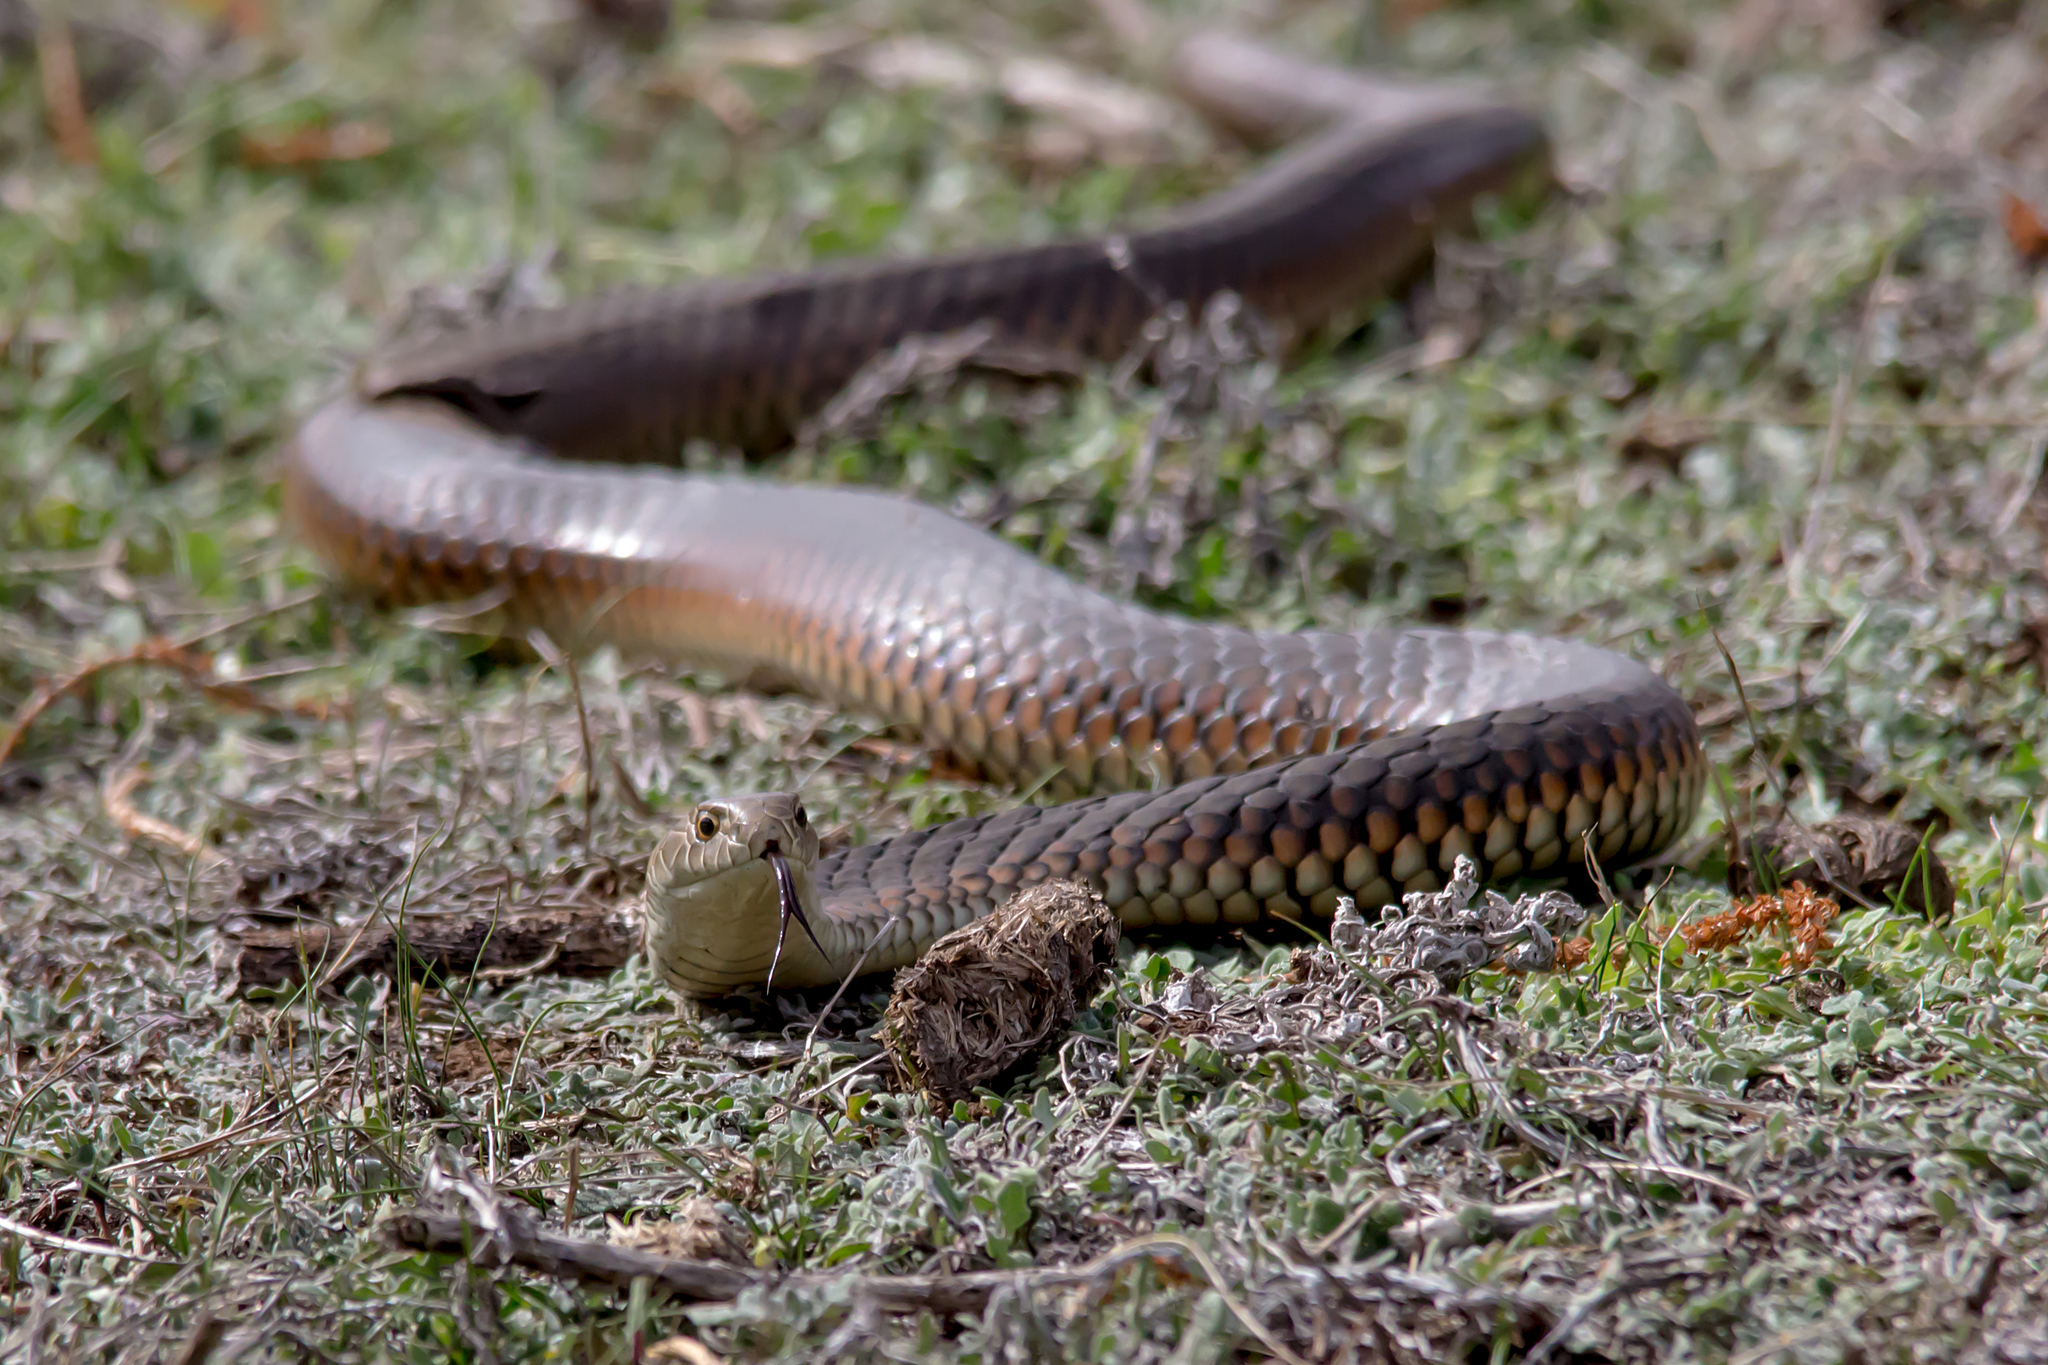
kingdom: Animalia
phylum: Chordata
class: Squamata
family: Elapidae
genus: Austrelaps
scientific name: Austrelaps superbus
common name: Copperhead snake
